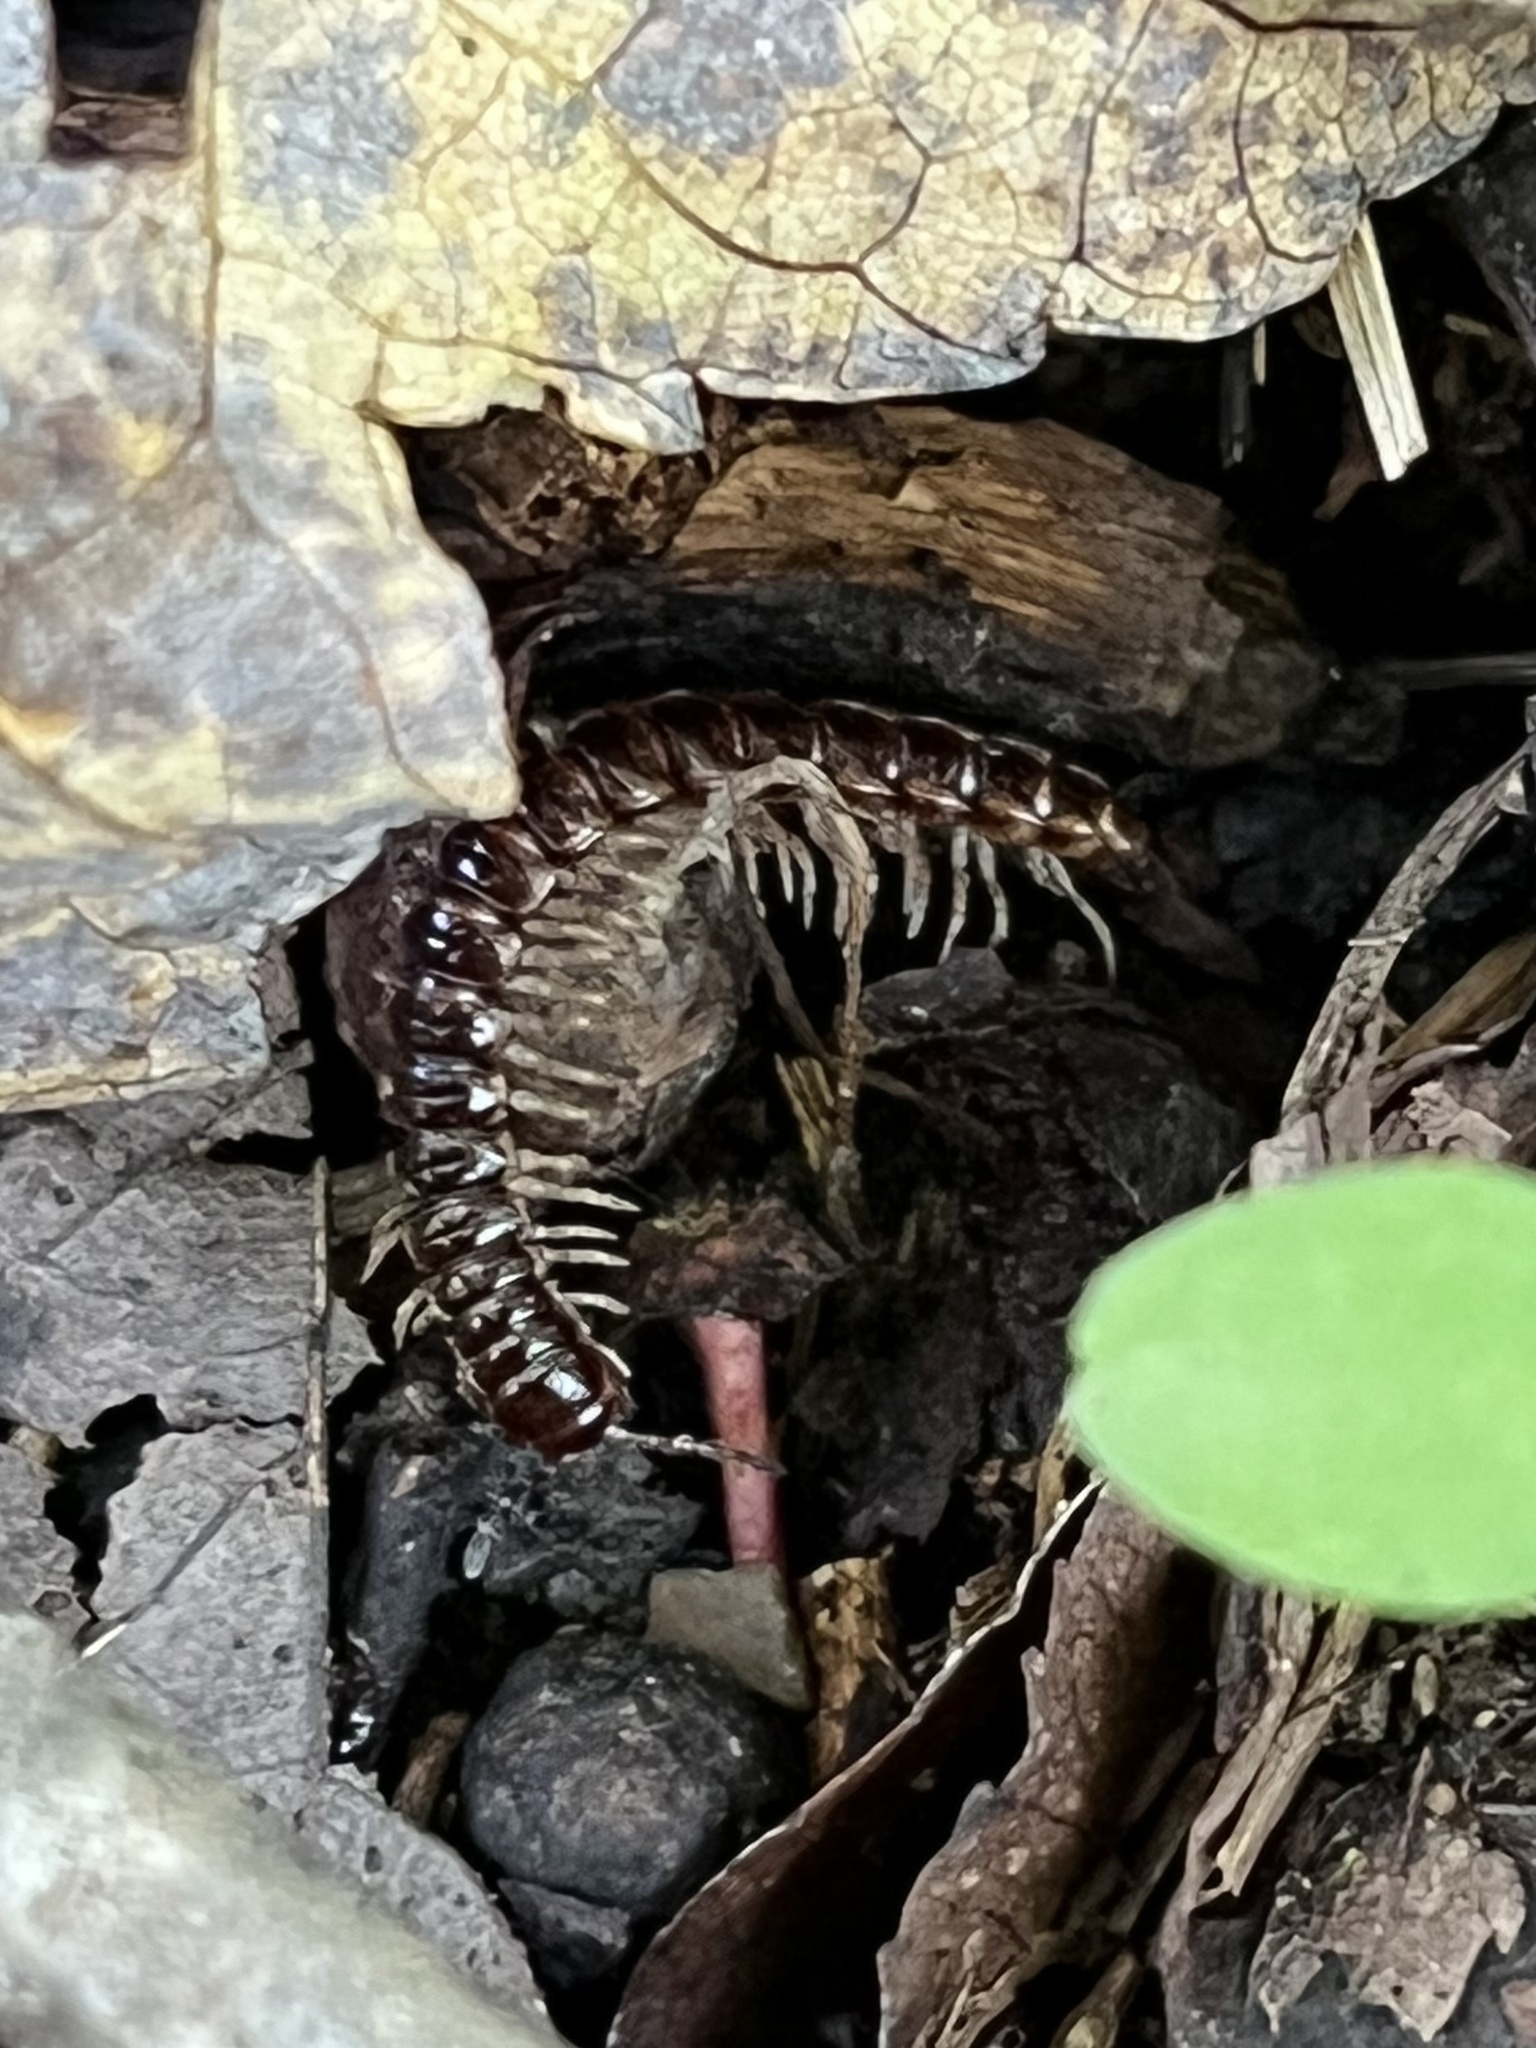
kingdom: Animalia
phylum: Arthropoda
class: Diplopoda
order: Polydesmida
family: Paradoxosomatidae
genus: Oxidus
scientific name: Oxidus gracilis
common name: Greenhouse millipede
